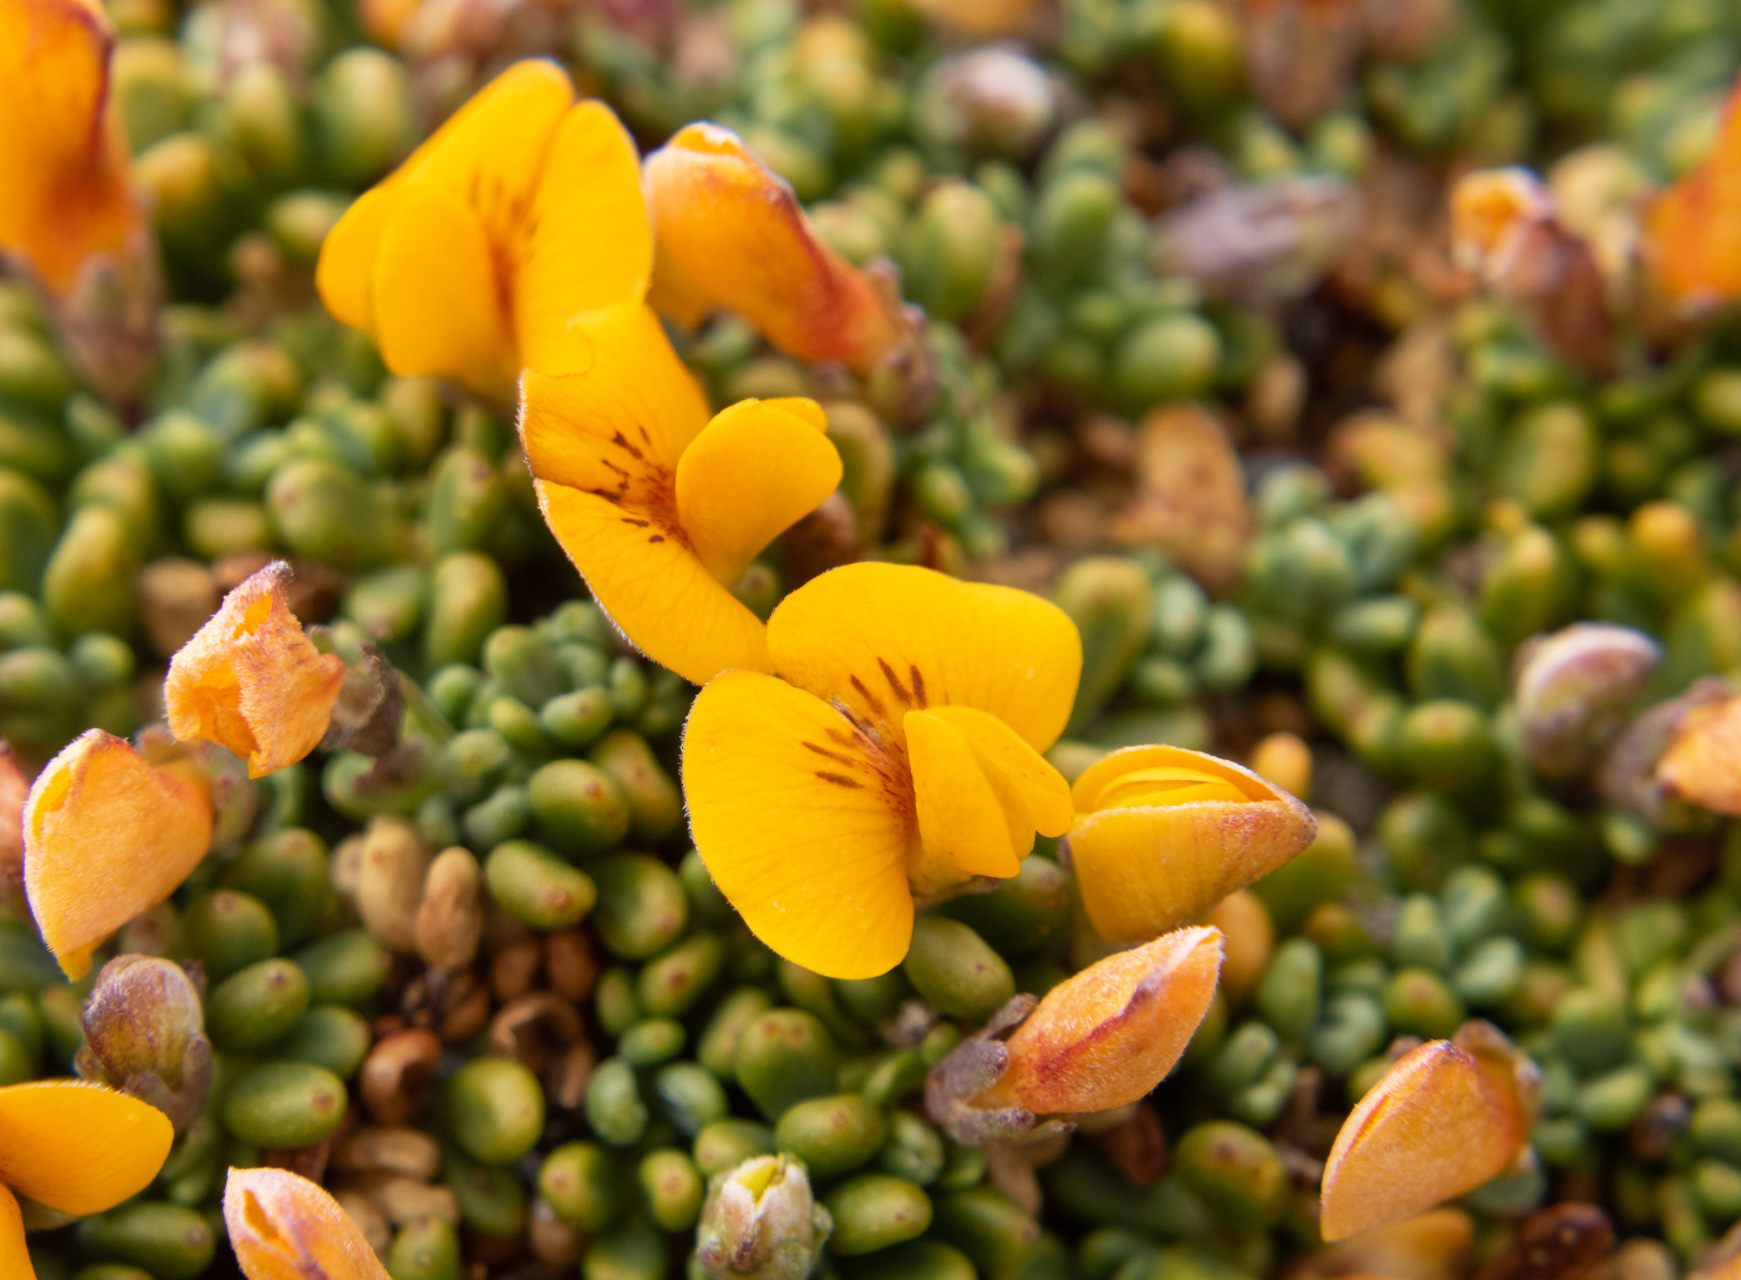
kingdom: Plantae
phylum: Tracheophyta
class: Magnoliopsida
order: Fabales
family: Fabaceae
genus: Adesmia
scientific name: Adesmia salicornioides
